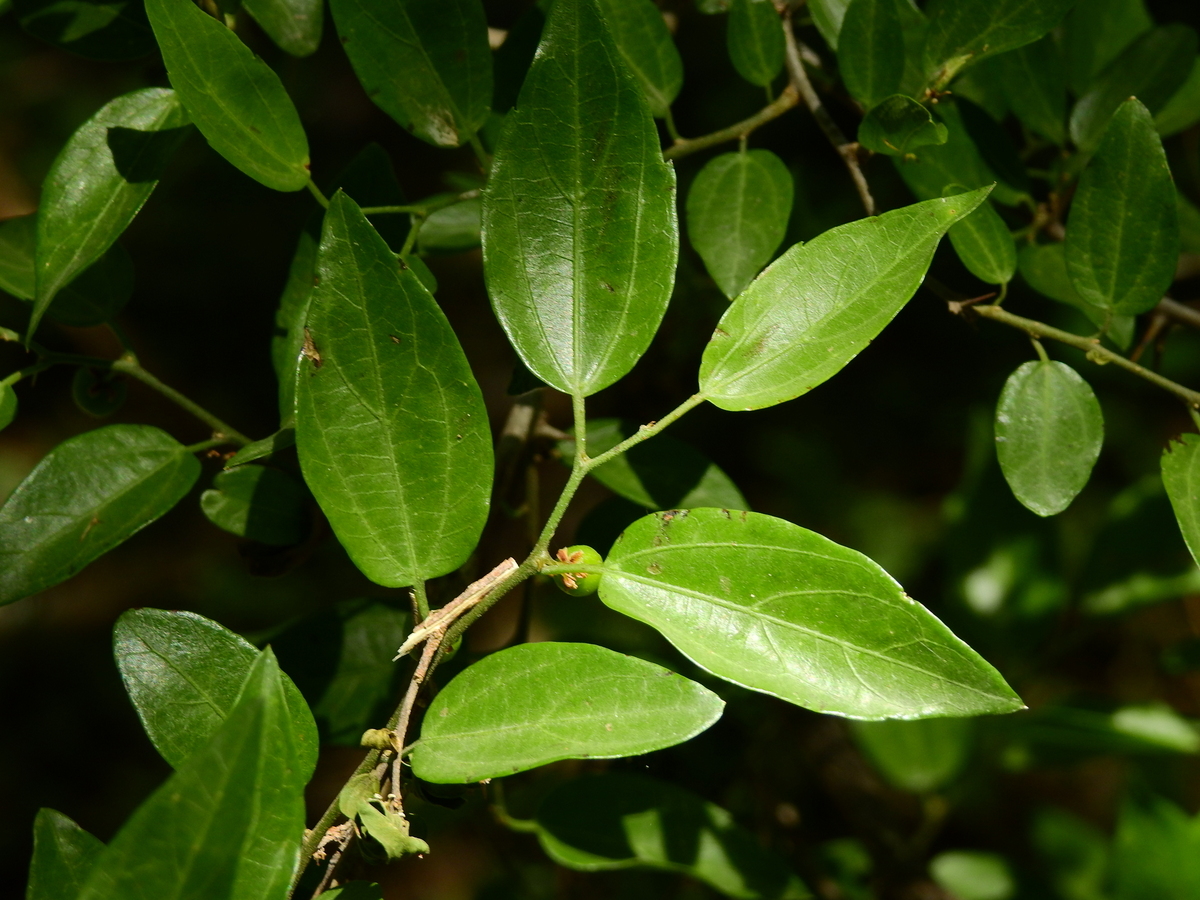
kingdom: Plantae
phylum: Tracheophyta
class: Magnoliopsida
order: Rosales
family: Cannabaceae
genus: Celtis
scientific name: Celtis tala
